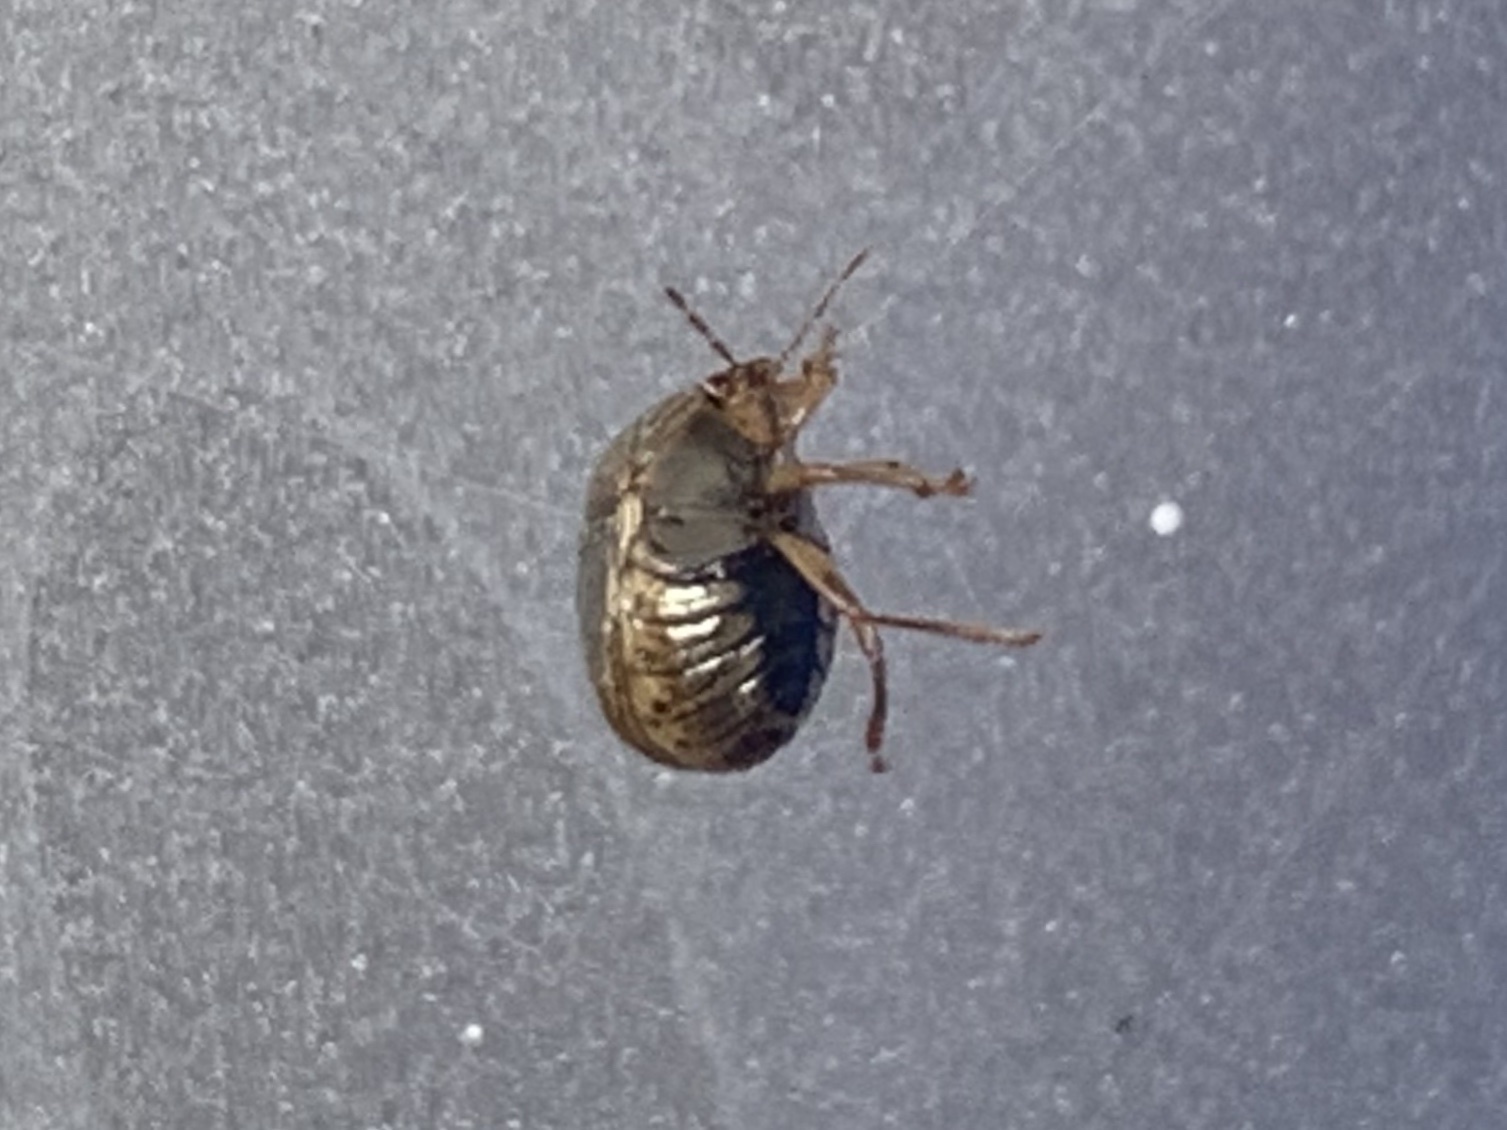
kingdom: Animalia
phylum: Arthropoda
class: Insecta
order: Hemiptera
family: Plataspidae
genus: Megacopta
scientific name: Megacopta cribraria
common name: Bean plataspid
